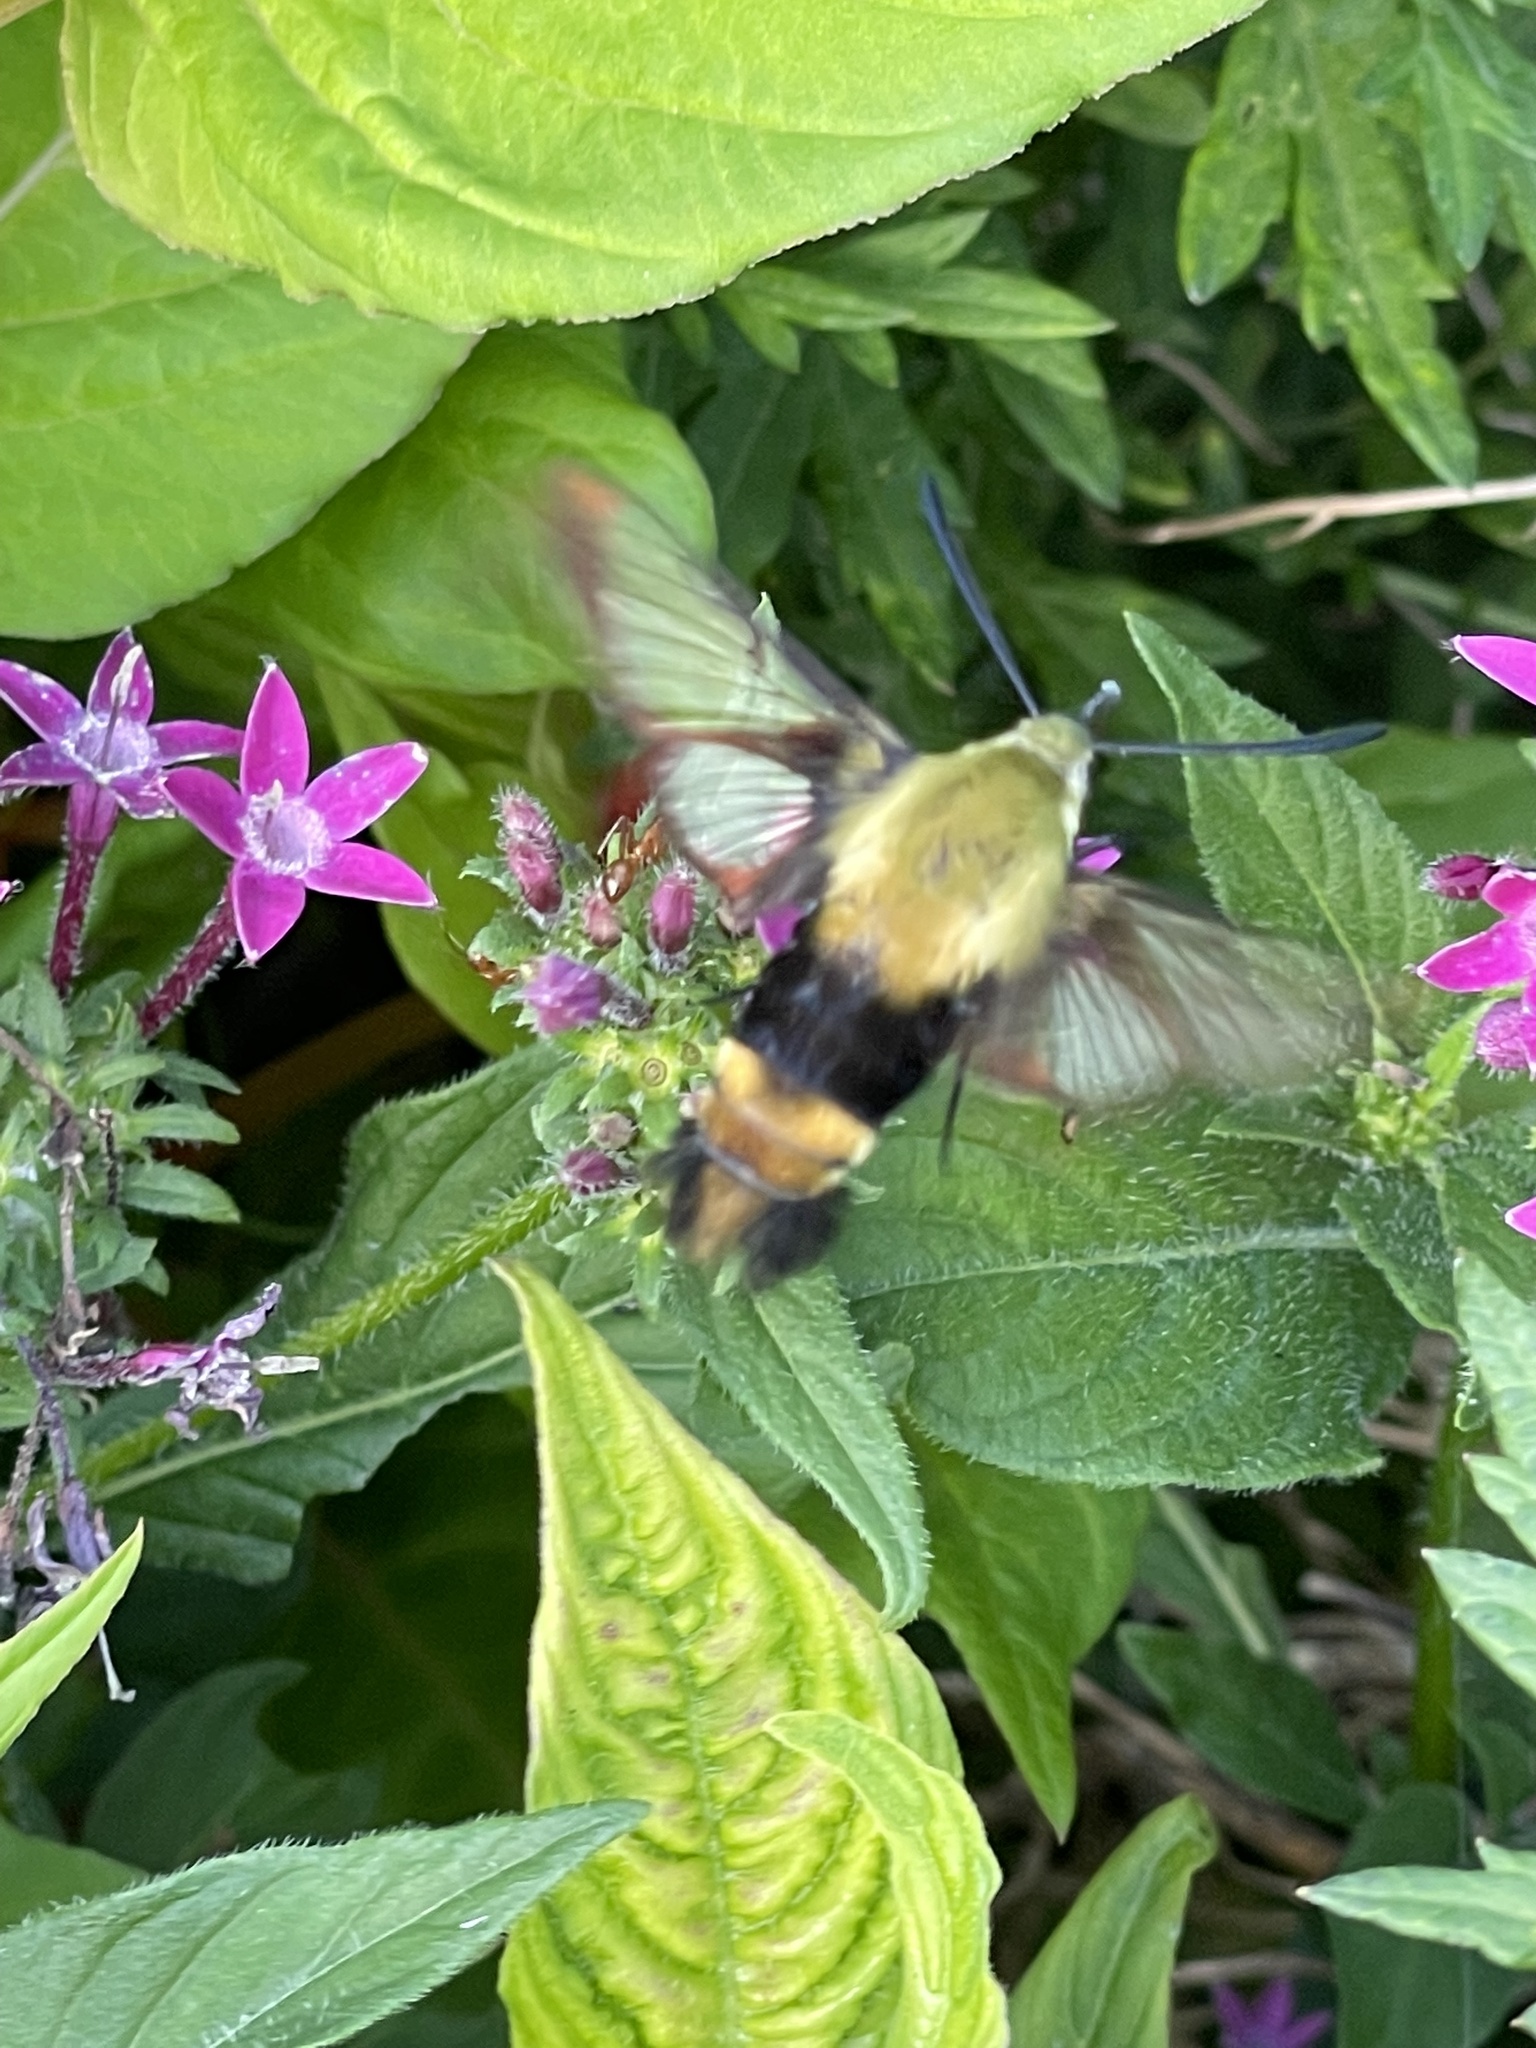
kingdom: Animalia
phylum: Arthropoda
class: Insecta
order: Lepidoptera
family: Sphingidae
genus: Hemaris
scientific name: Hemaris diffinis
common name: Bumblebee moth
